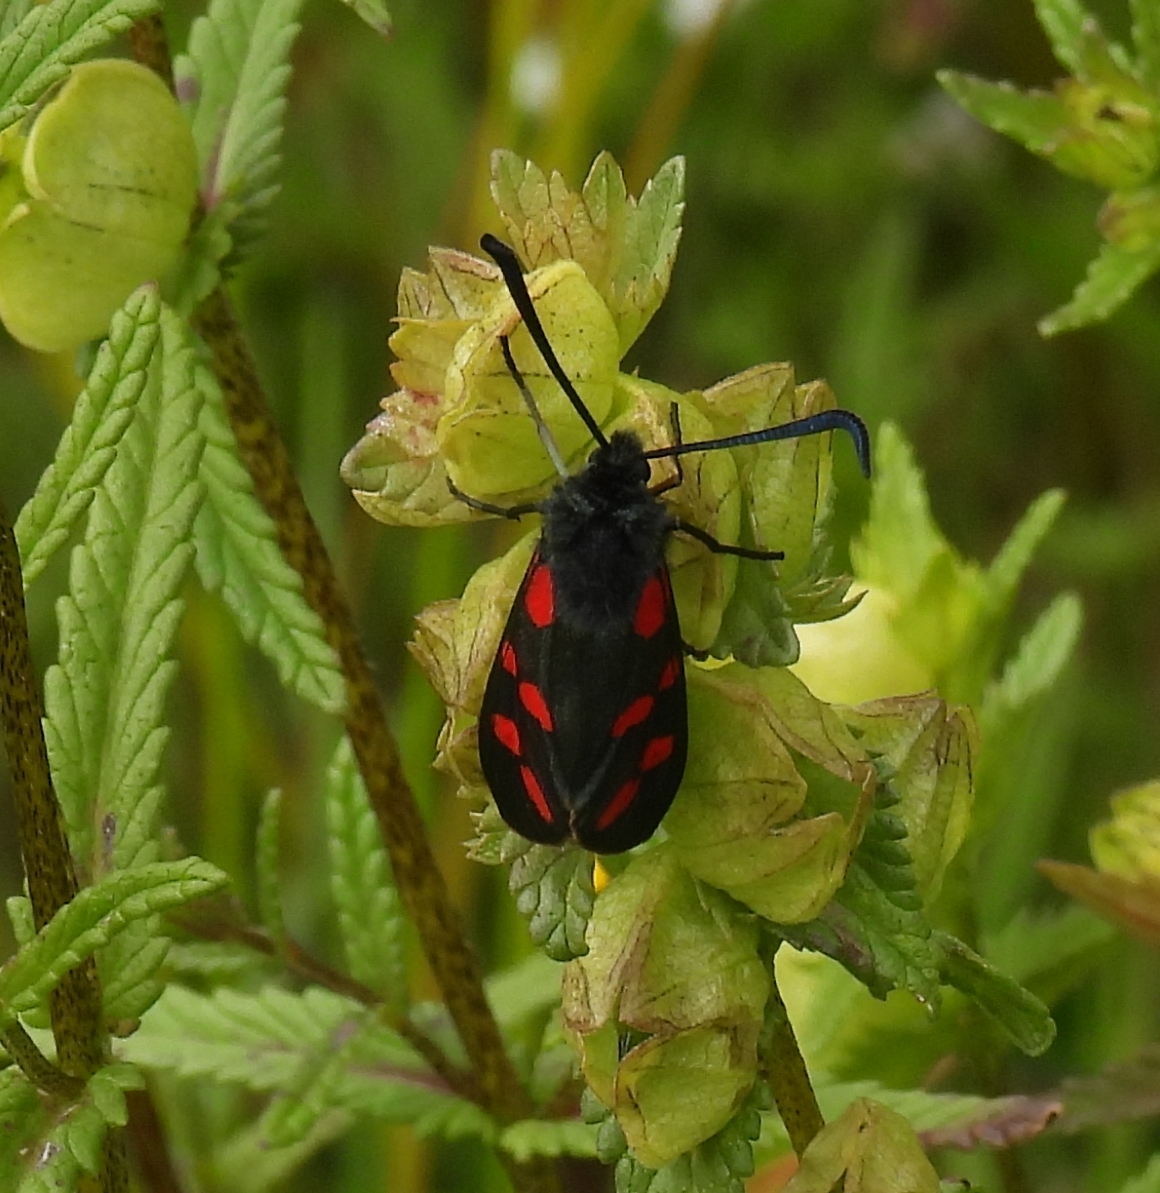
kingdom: Animalia
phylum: Arthropoda
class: Insecta
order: Lepidoptera
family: Zygaenidae
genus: Zygaena
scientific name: Zygaena filipendulae
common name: Six-spot burnet
